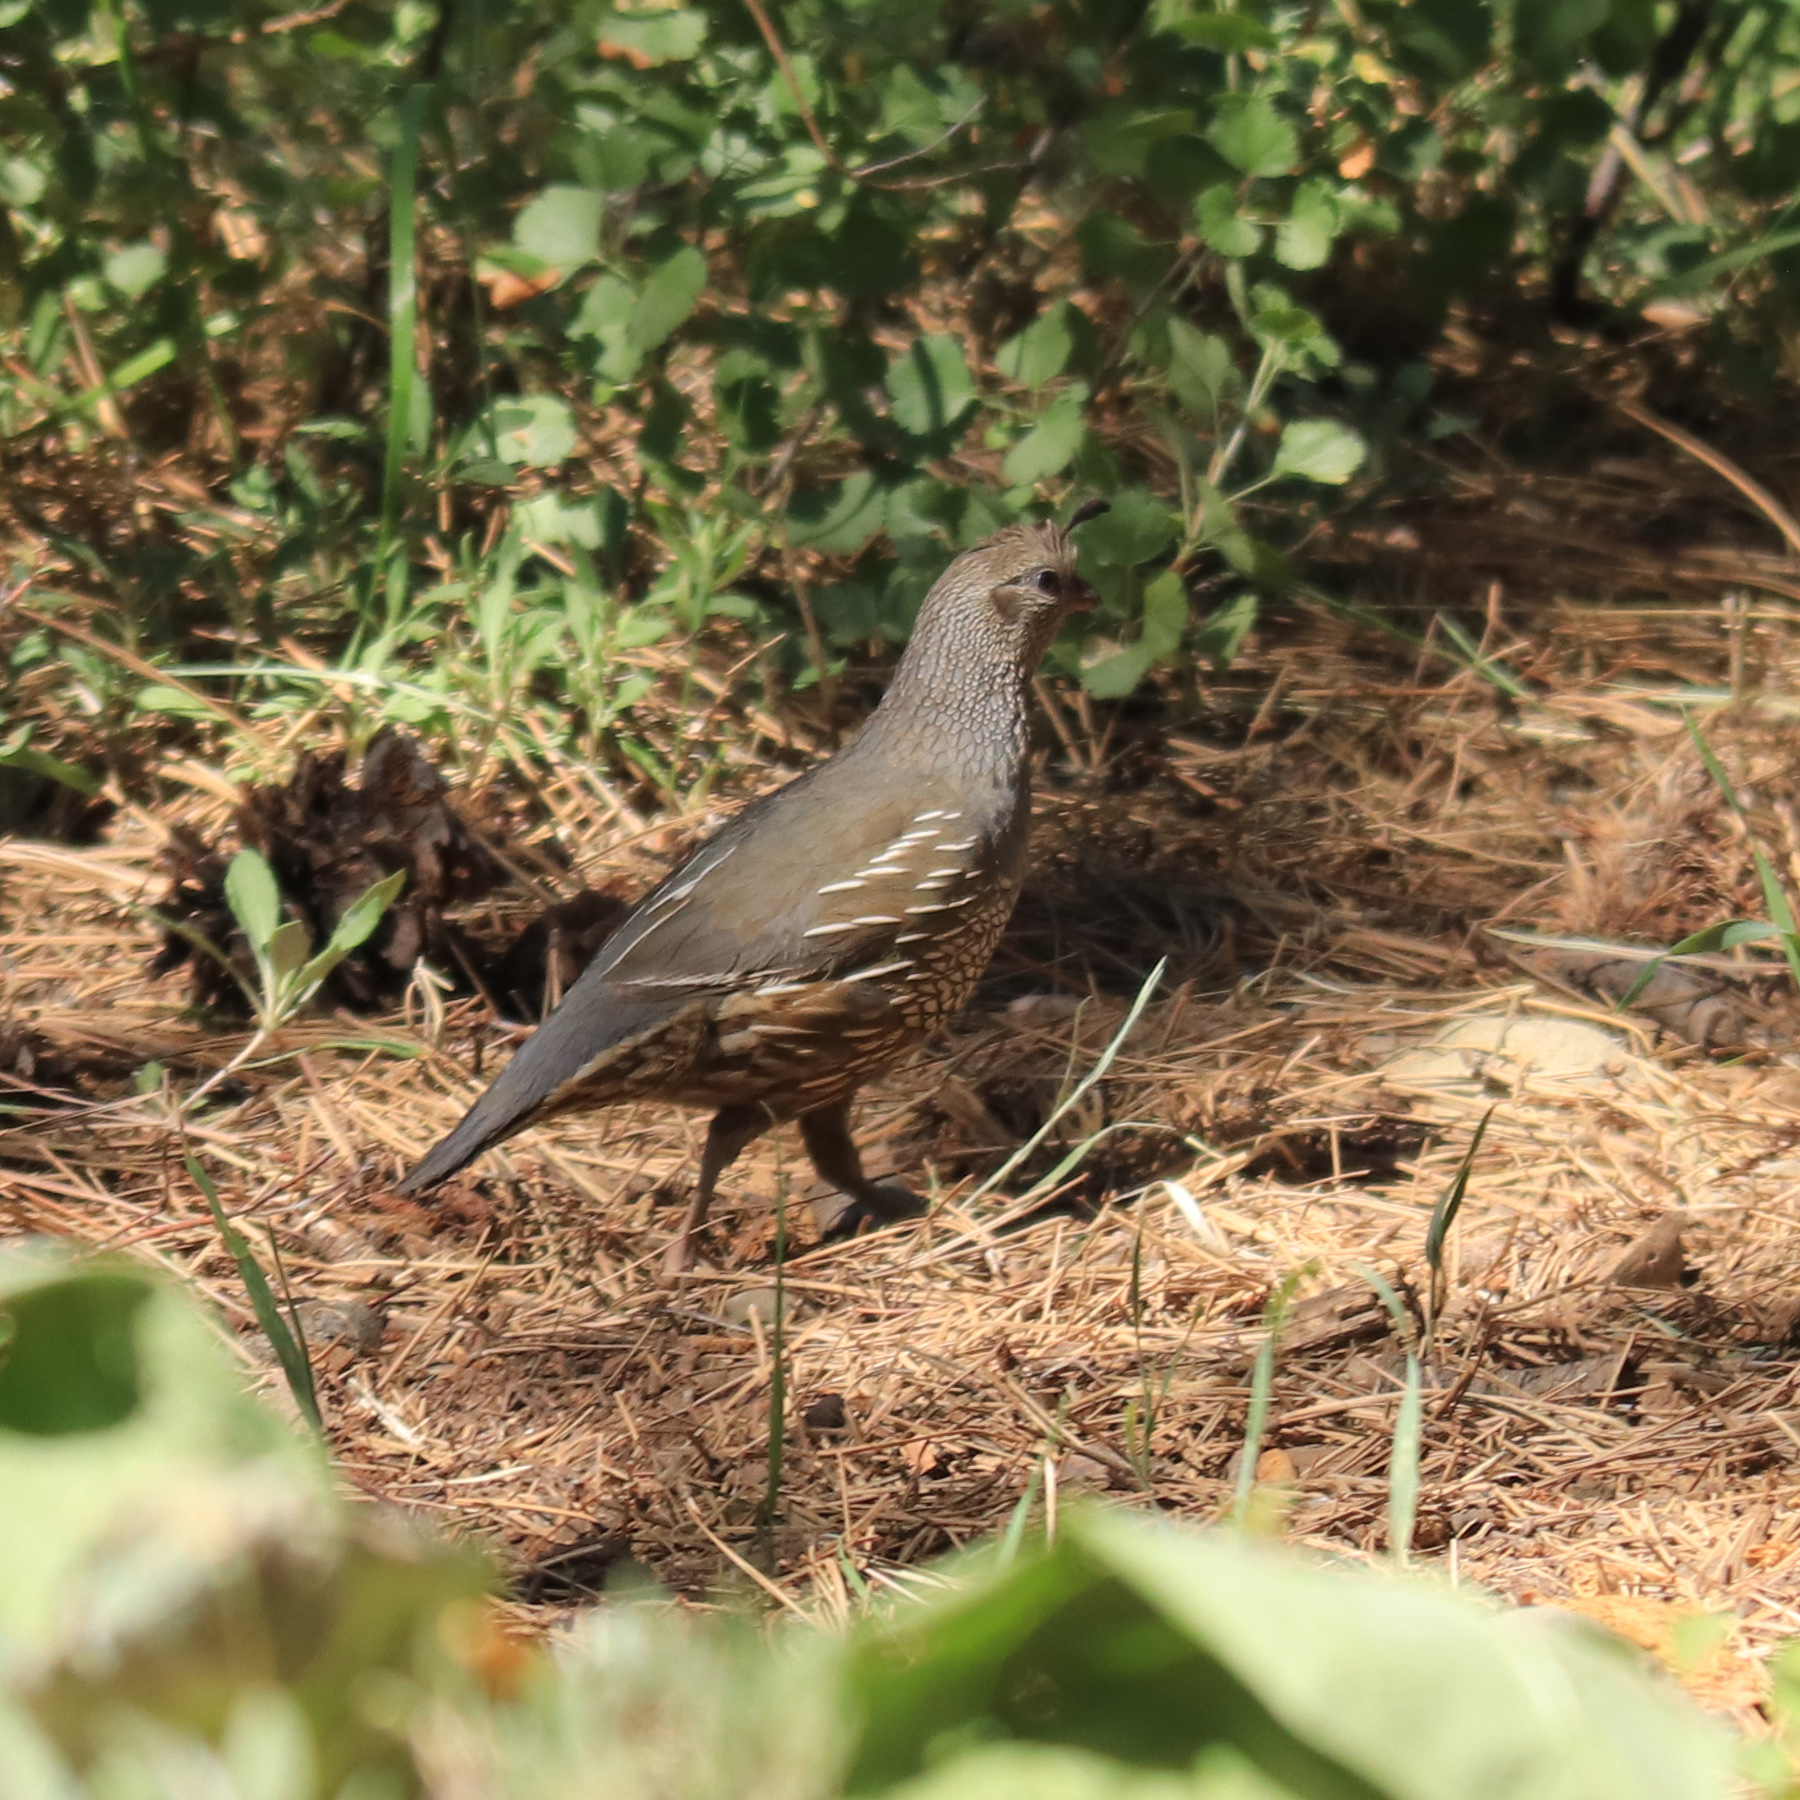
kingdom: Animalia
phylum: Chordata
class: Aves
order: Galliformes
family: Odontophoridae
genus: Callipepla
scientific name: Callipepla californica
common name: California quail
